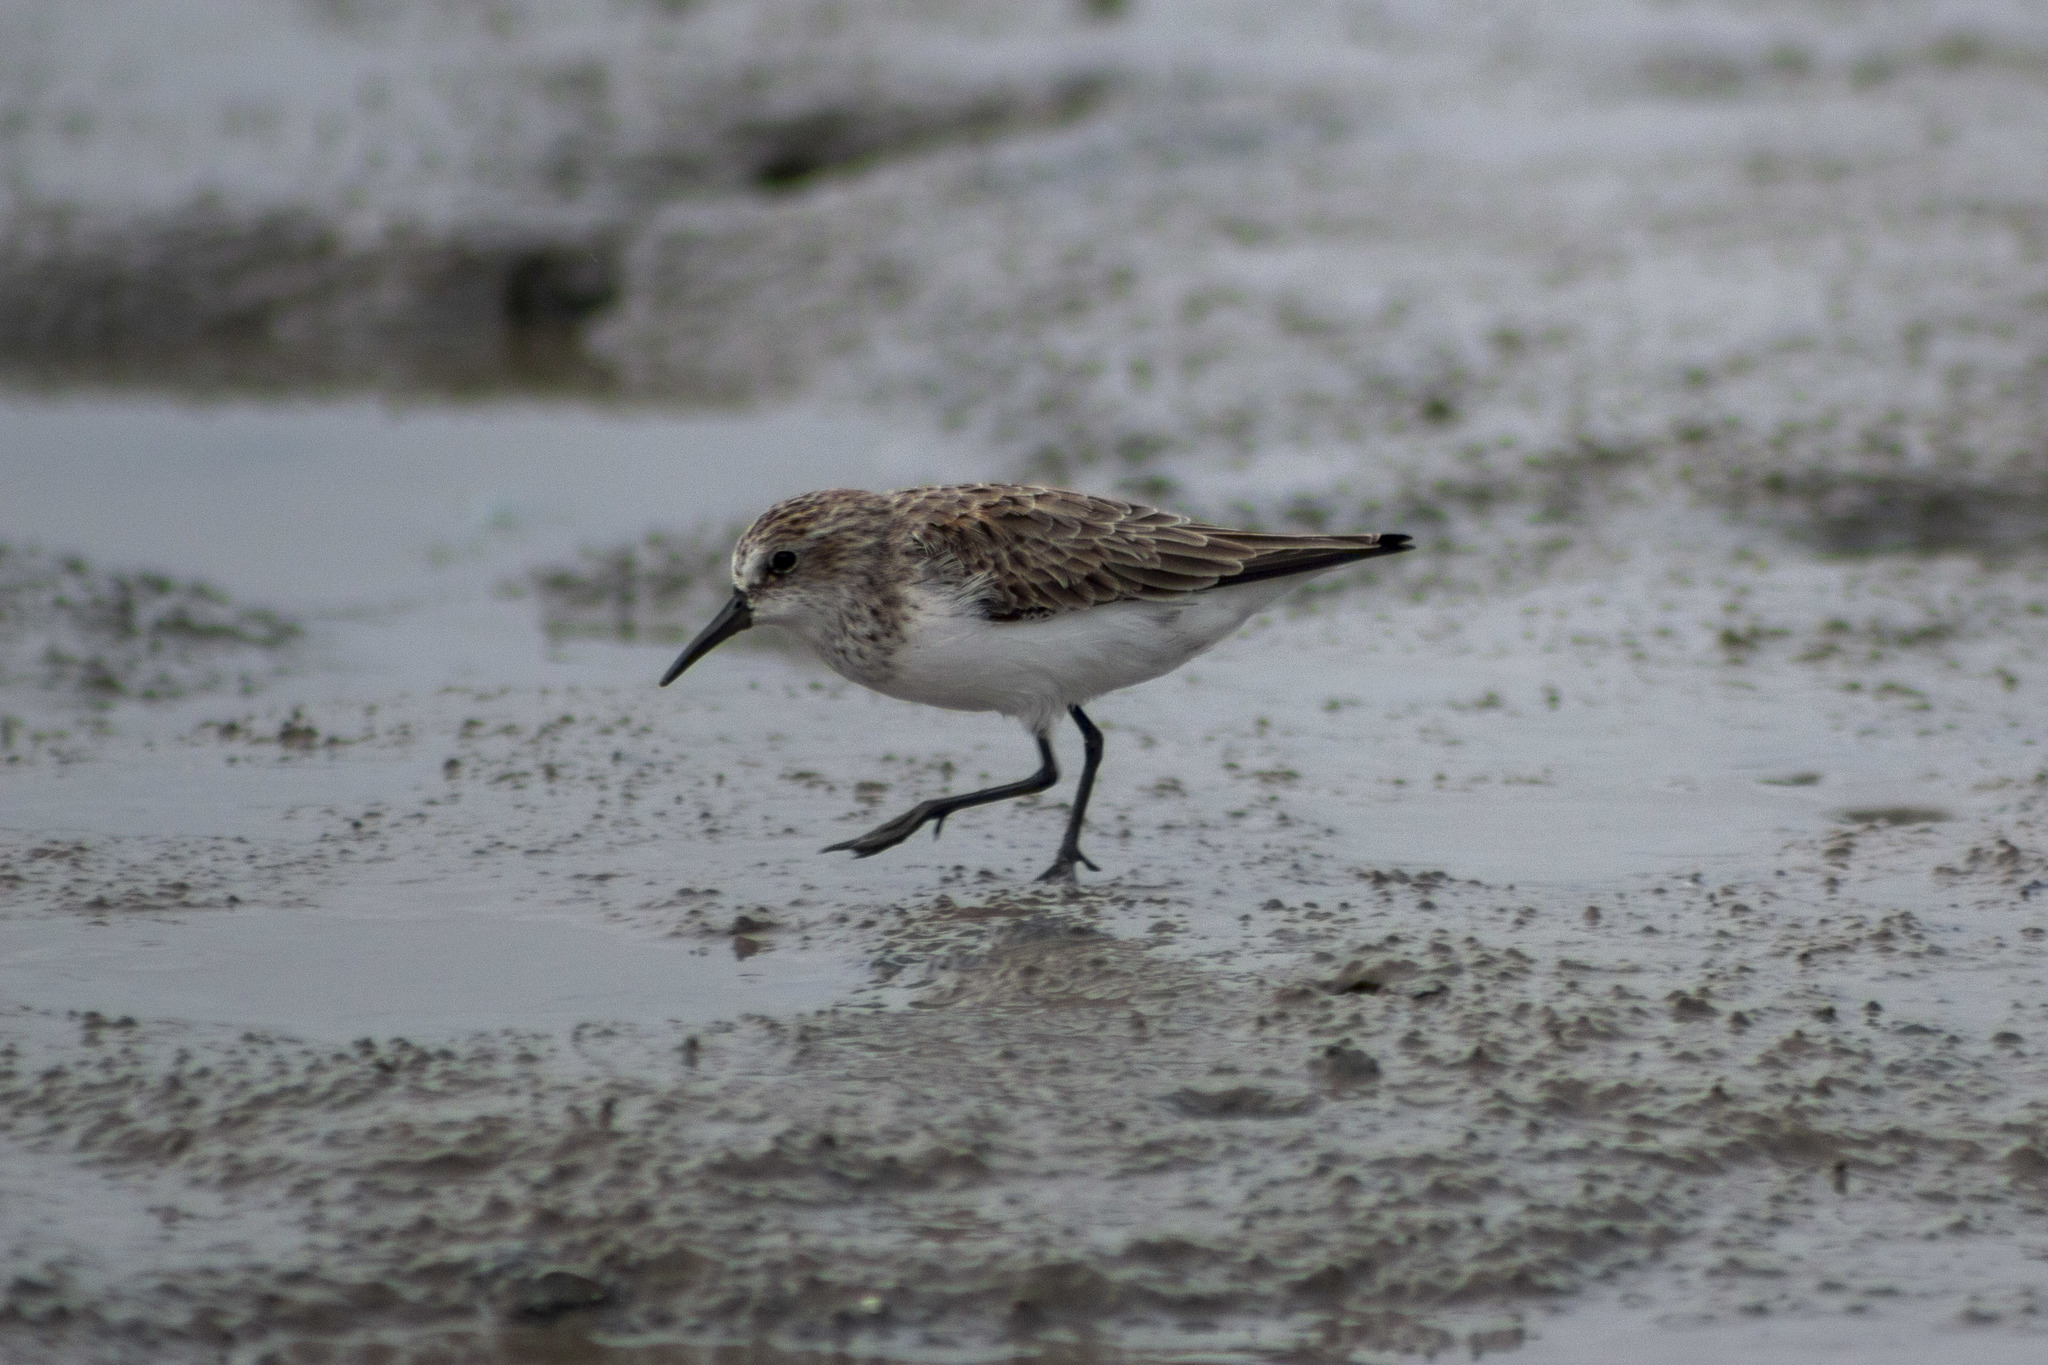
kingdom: Animalia
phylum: Chordata
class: Aves
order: Charadriiformes
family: Scolopacidae
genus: Calidris
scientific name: Calidris pusilla
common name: Semipalmated sandpiper
